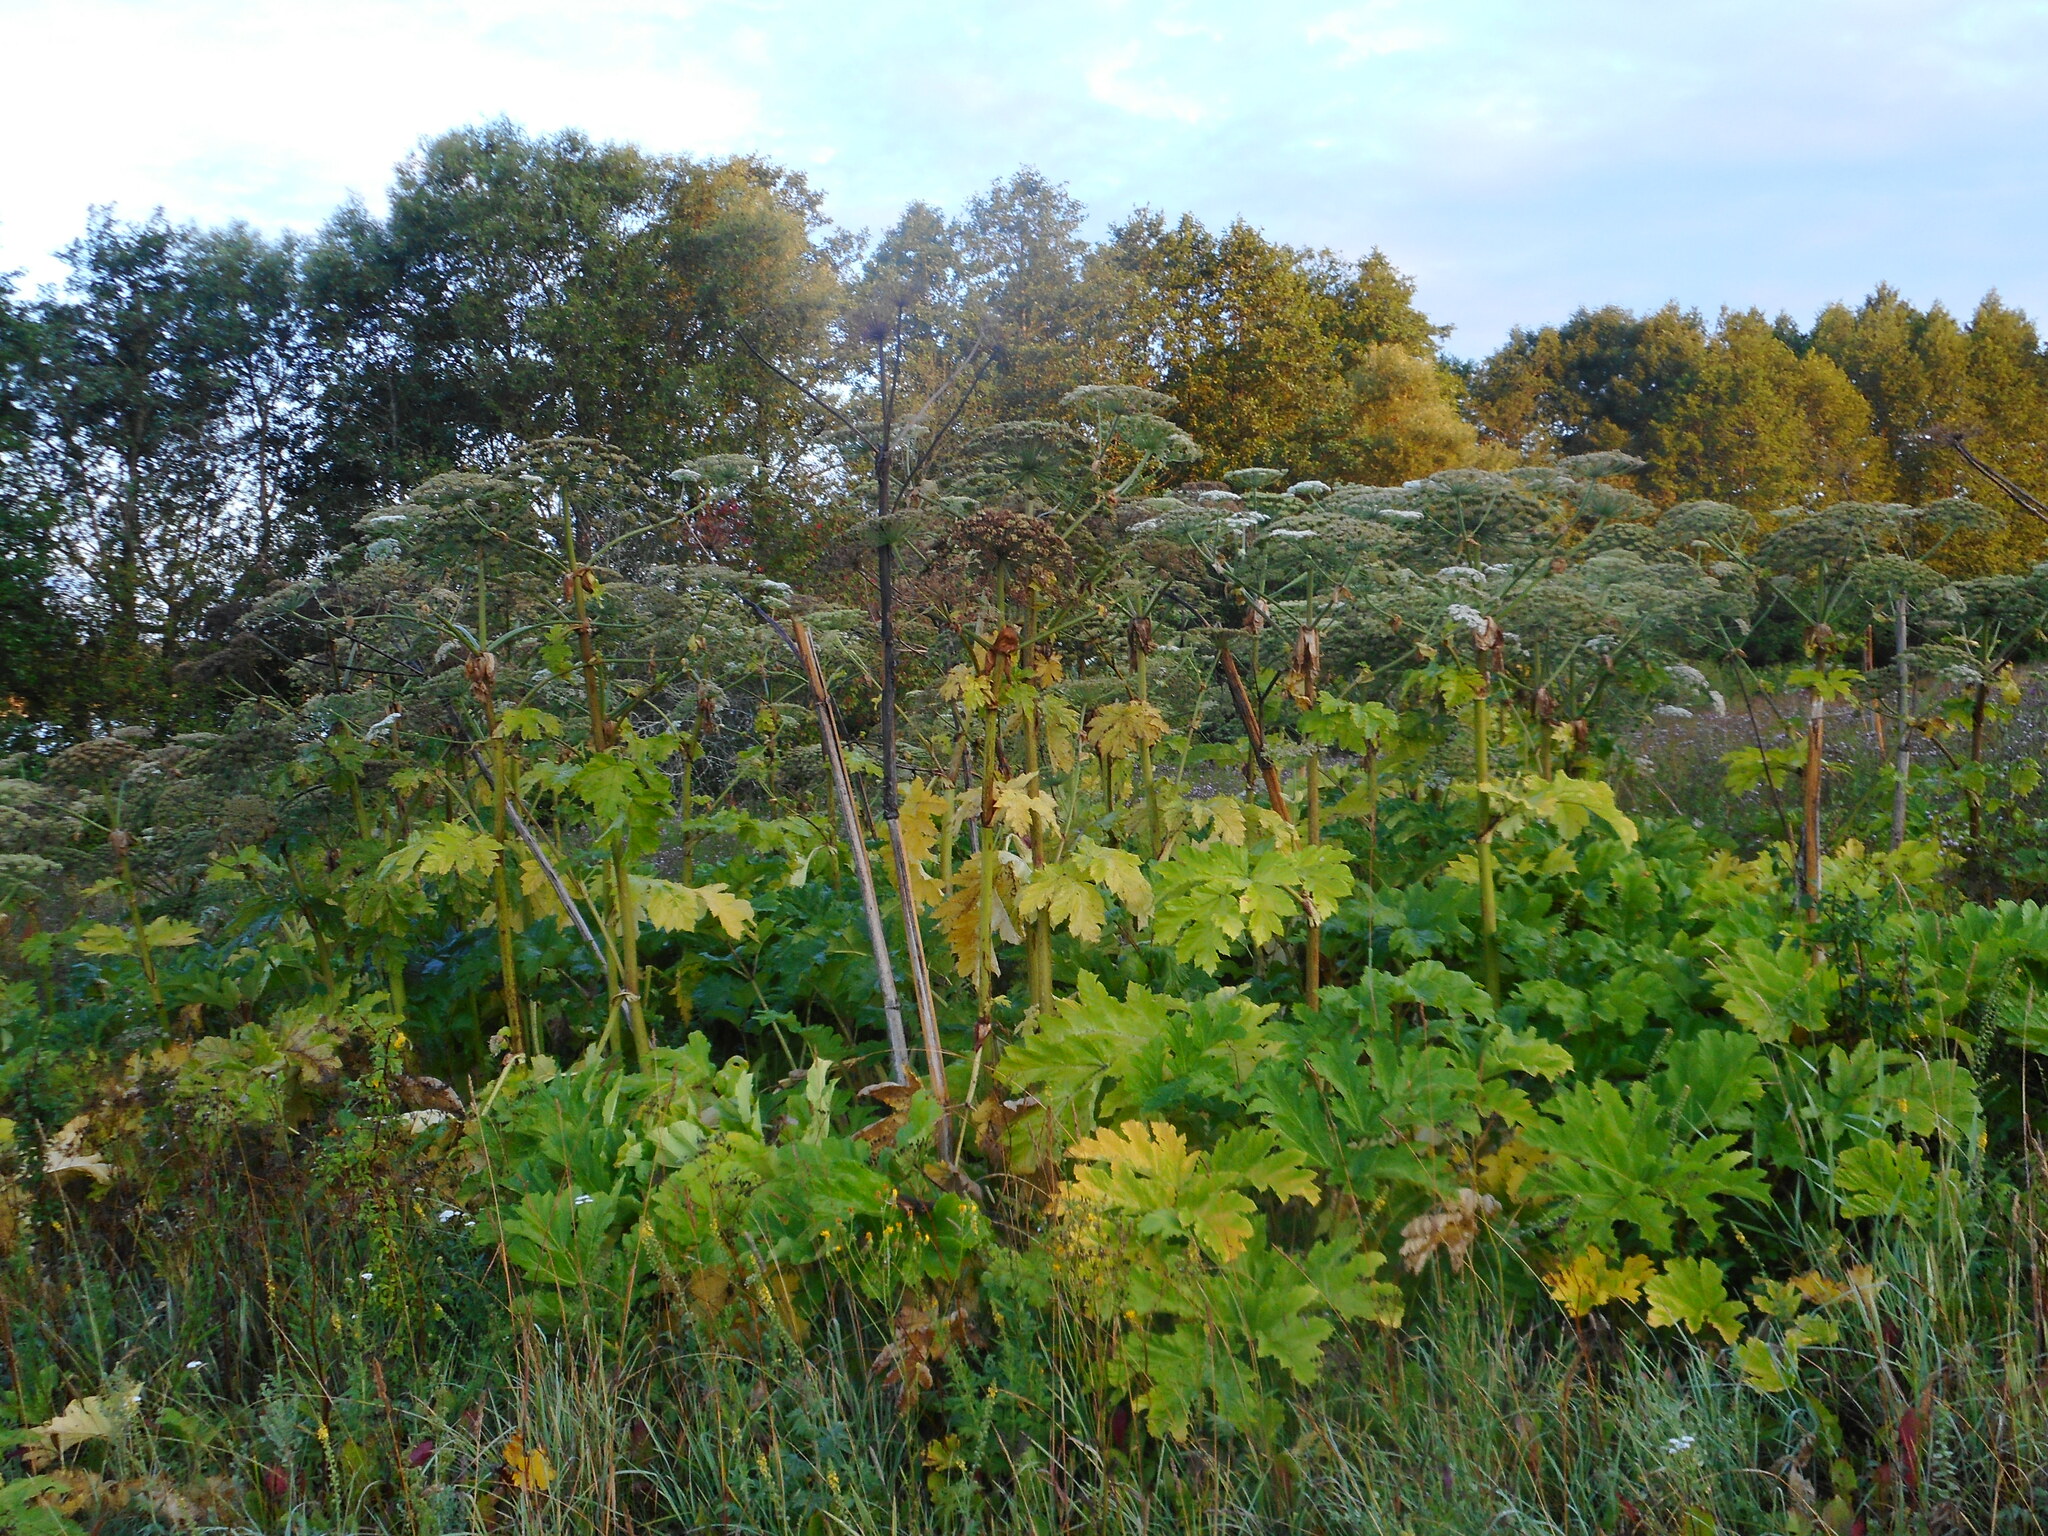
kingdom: Plantae
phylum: Tracheophyta
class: Magnoliopsida
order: Apiales
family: Apiaceae
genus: Heracleum
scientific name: Heracleum sosnowskyi
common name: Sosnowsky's hogweed
